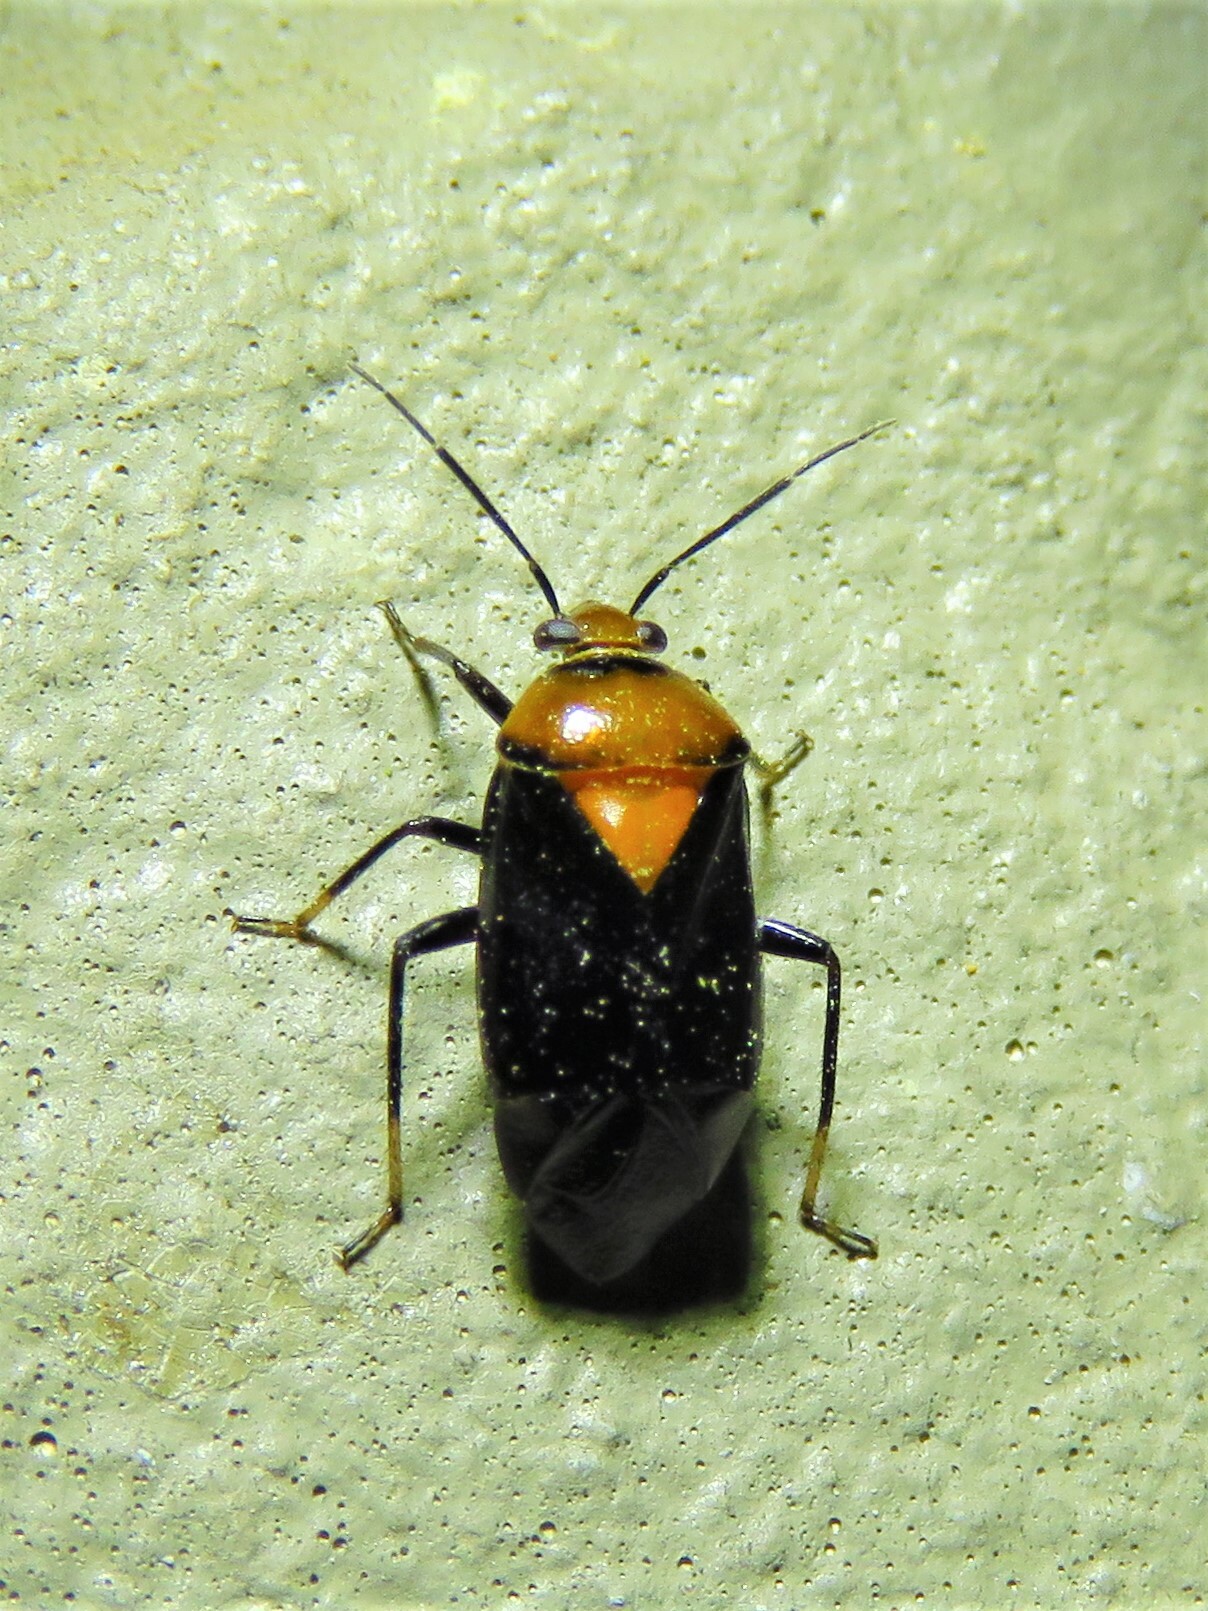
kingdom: Animalia
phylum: Arthropoda
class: Insecta
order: Hemiptera
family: Miridae
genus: Neocapsus
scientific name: Neocapsus cuneatus
